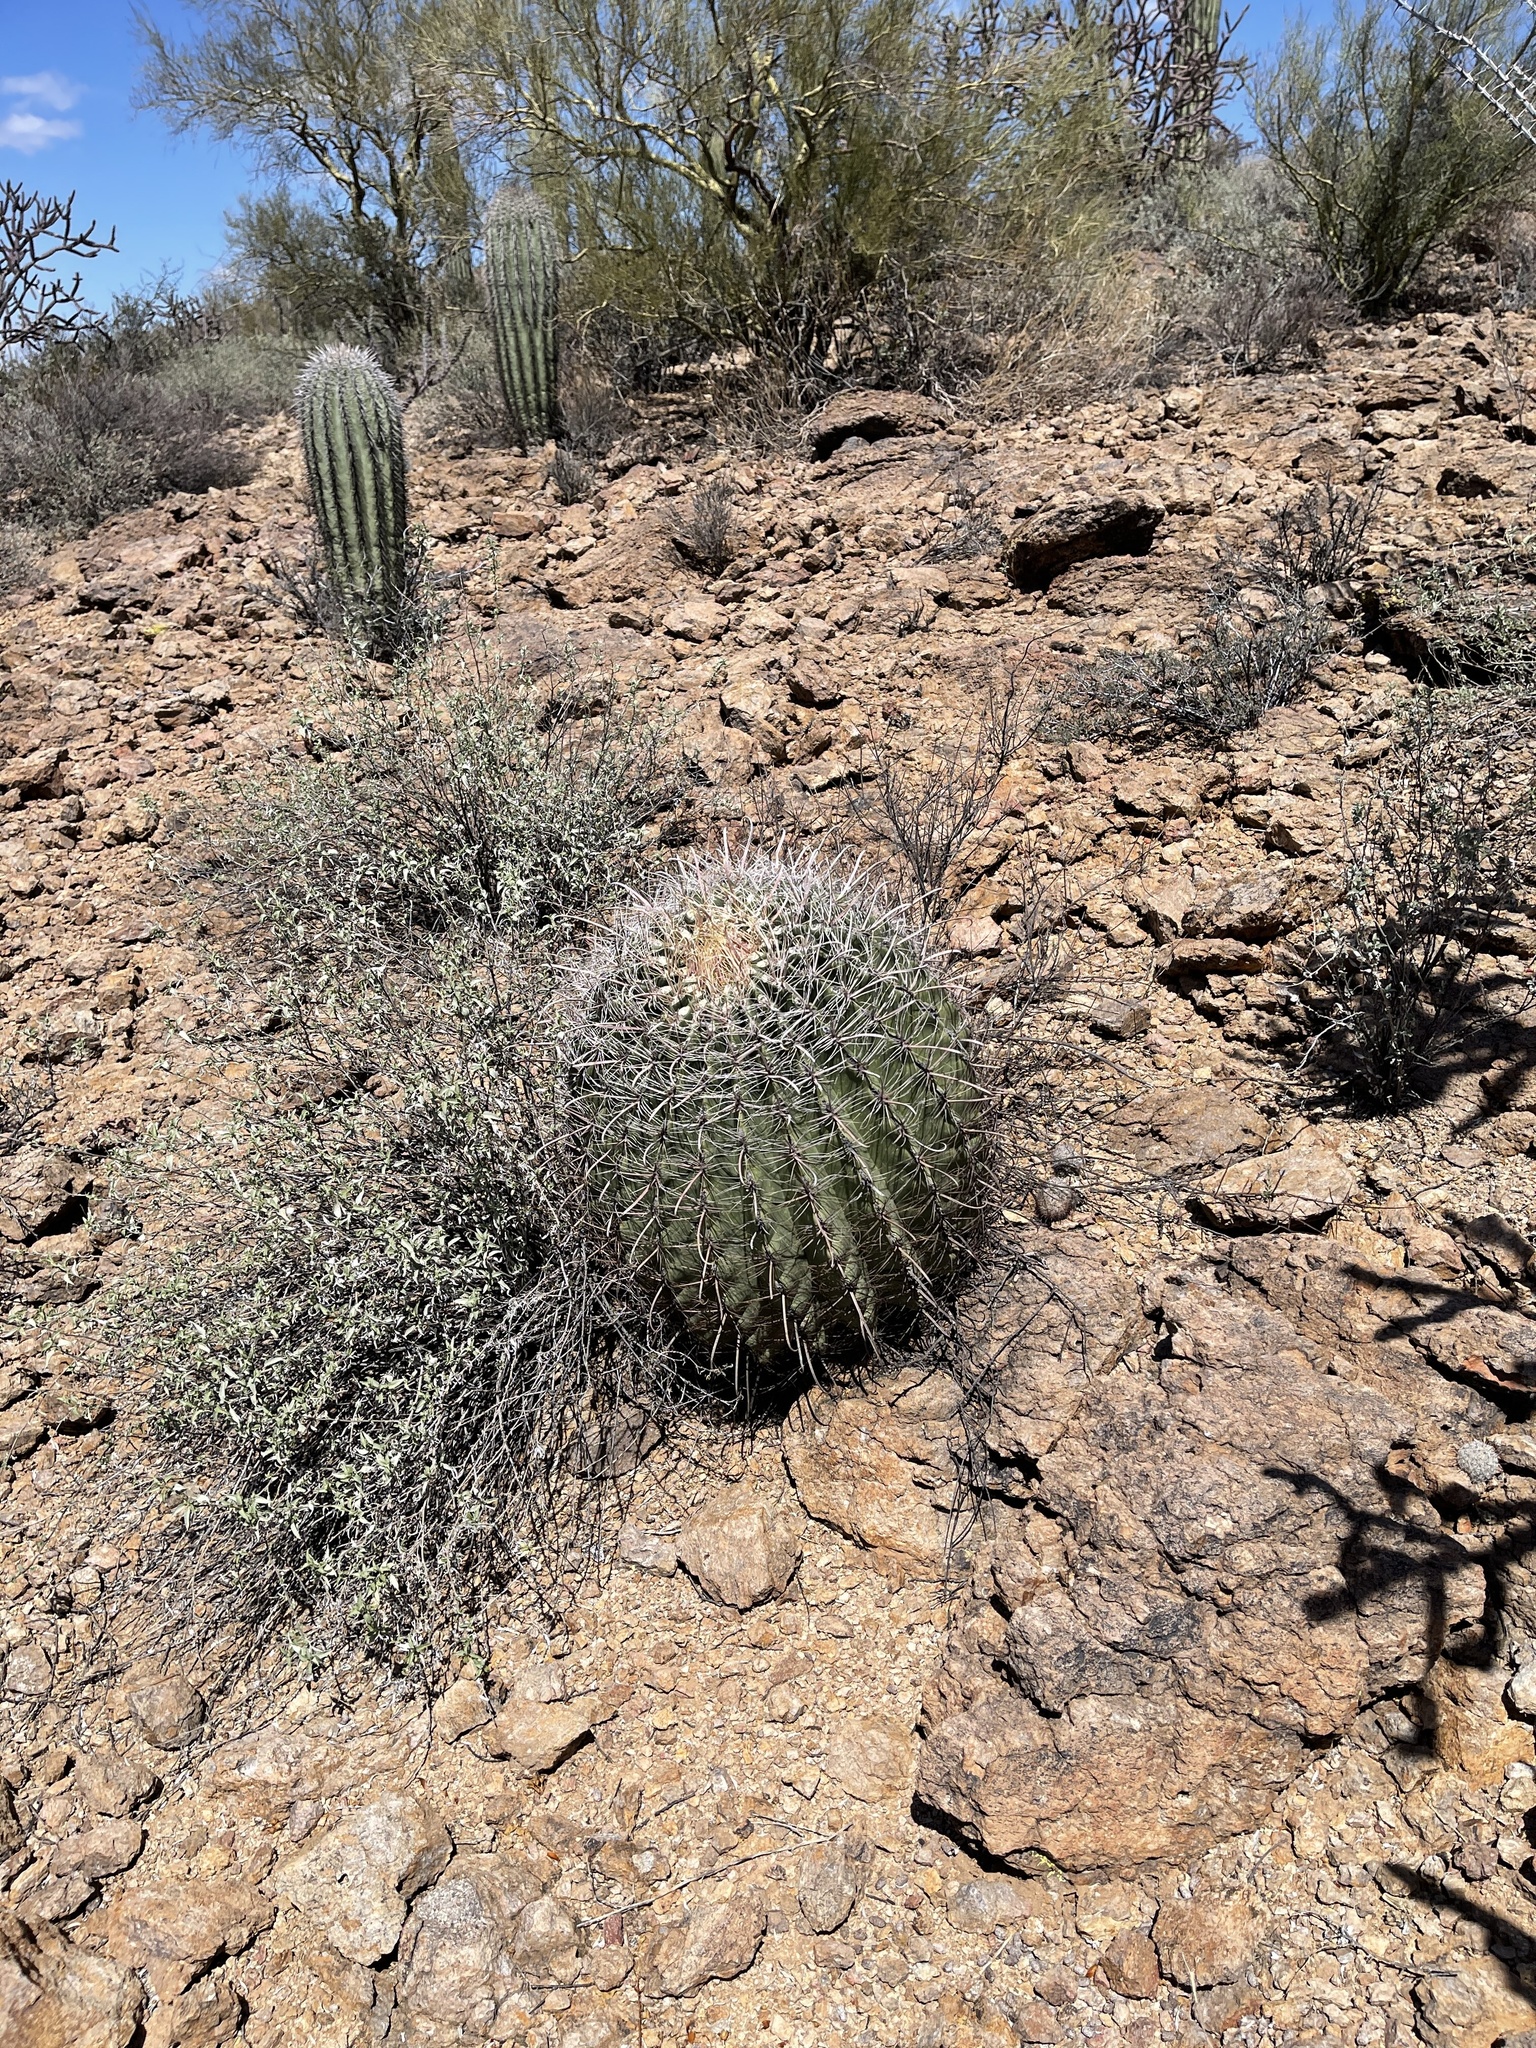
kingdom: Plantae
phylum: Tracheophyta
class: Magnoliopsida
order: Caryophyllales
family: Cactaceae
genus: Ferocactus
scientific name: Ferocactus wislizeni
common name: Candy barrel cactus
